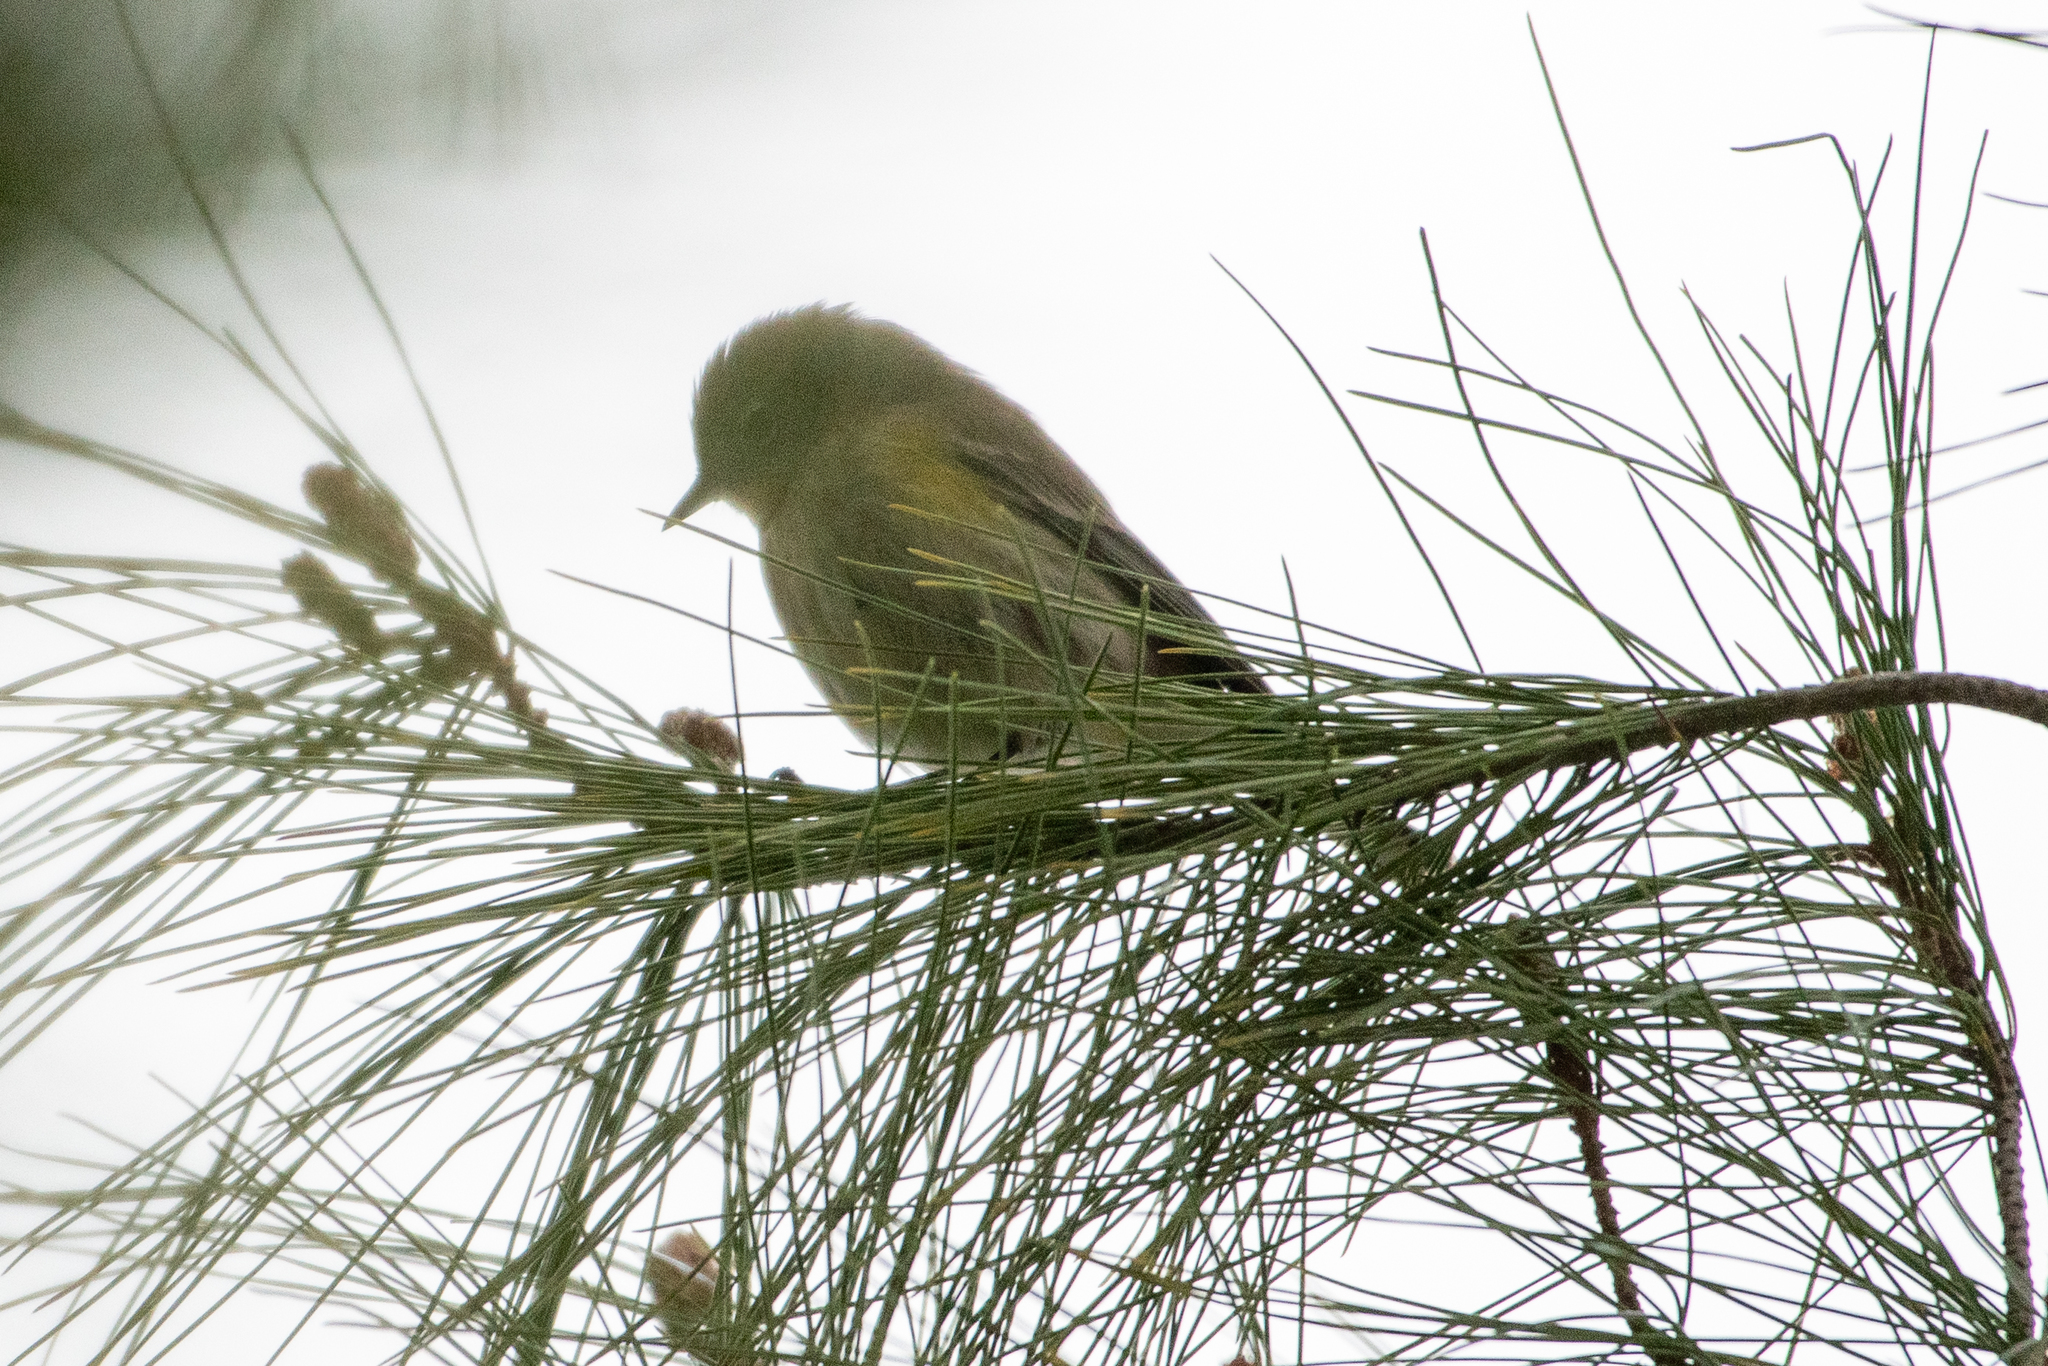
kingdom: Animalia
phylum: Chordata
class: Aves
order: Passeriformes
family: Parulidae
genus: Setophaga
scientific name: Setophaga coronata
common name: Myrtle warbler
